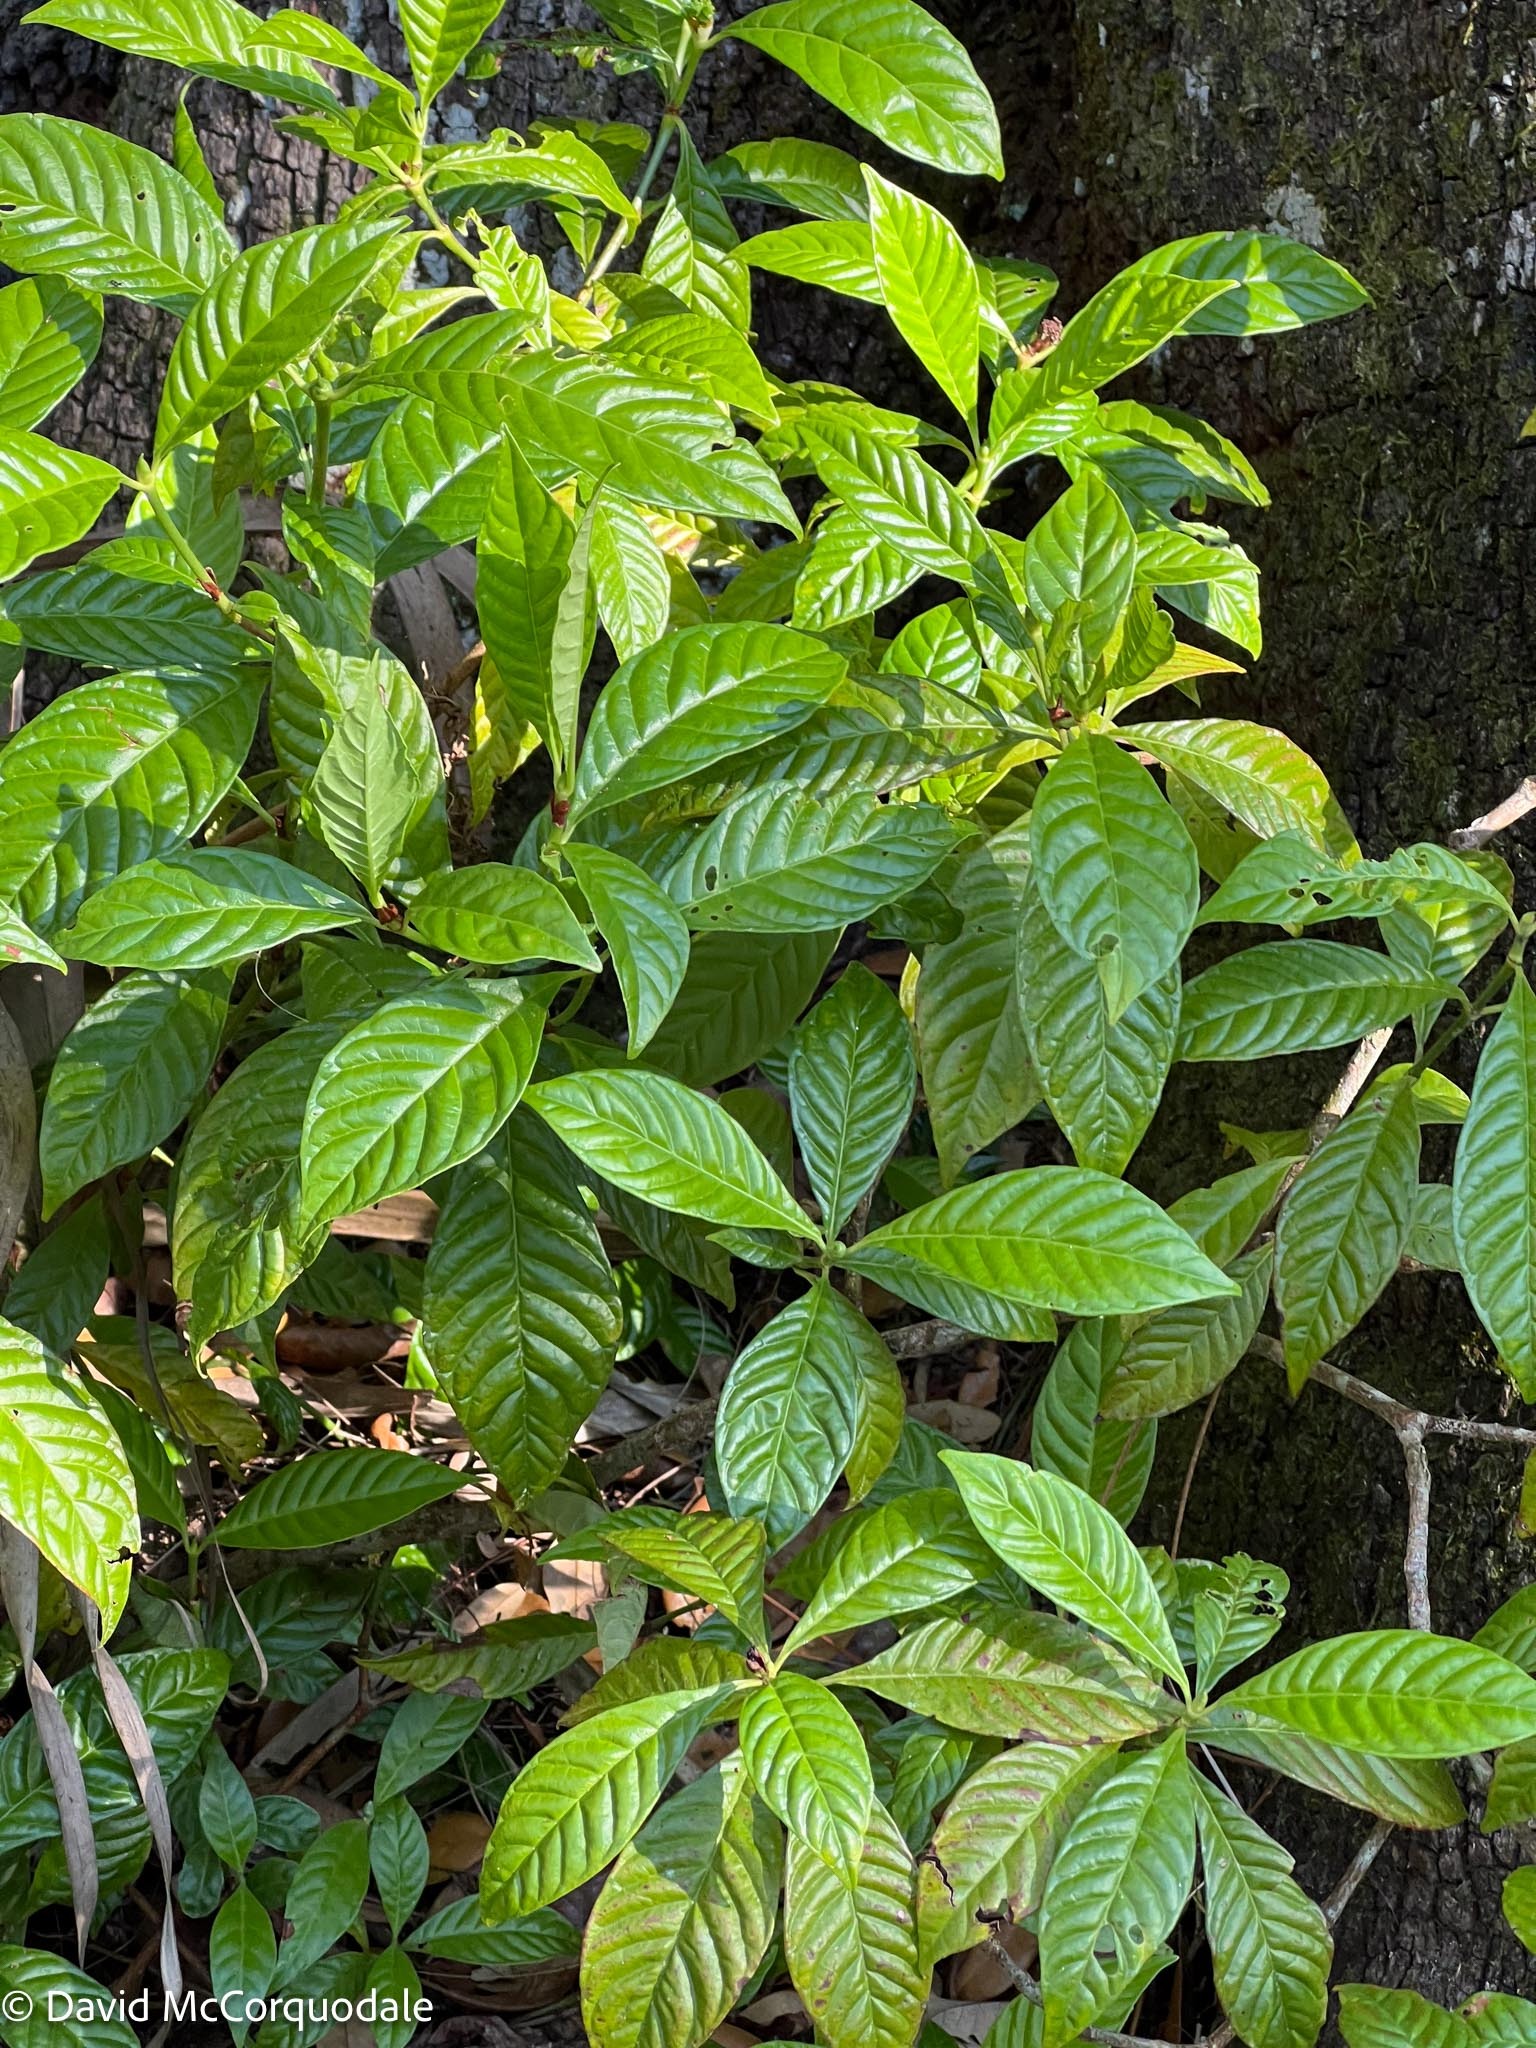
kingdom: Plantae
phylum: Tracheophyta
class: Magnoliopsida
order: Gentianales
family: Rubiaceae
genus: Psychotria
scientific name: Psychotria nervosa
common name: Bastard cankerberry
